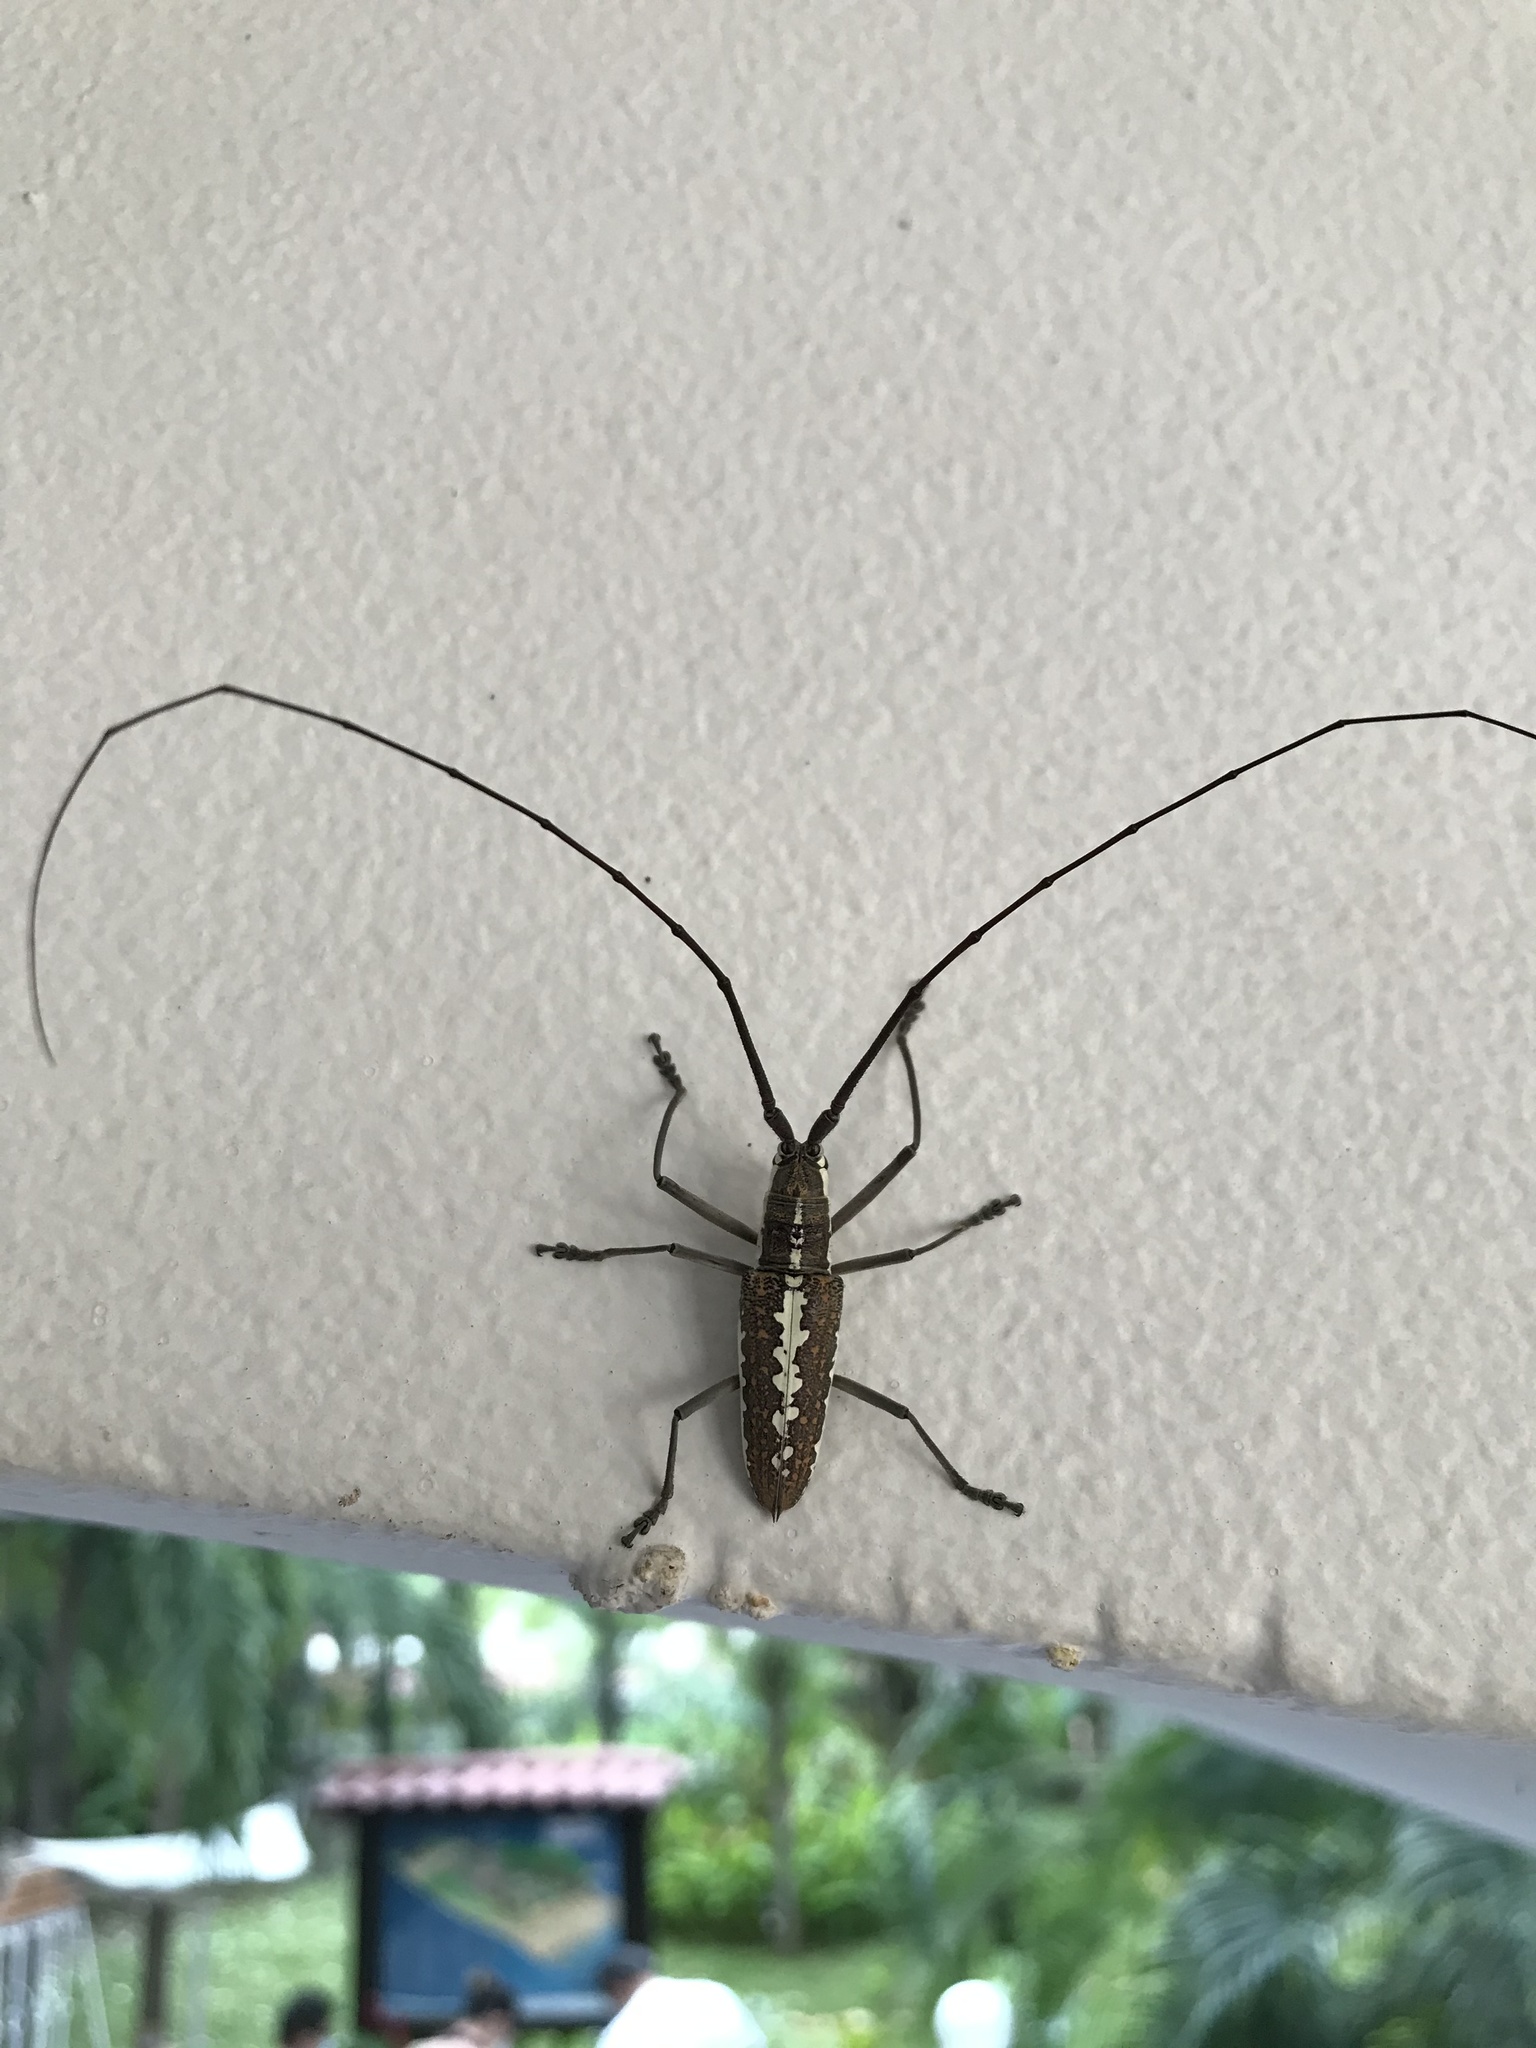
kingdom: Animalia
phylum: Arthropoda
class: Insecta
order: Coleoptera
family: Cerambycidae
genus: Neoptychodes
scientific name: Neoptychodes trilineatus
